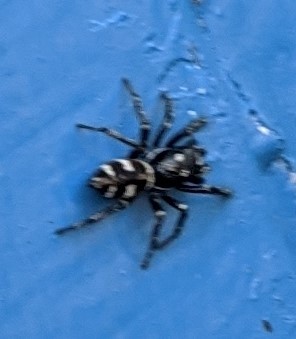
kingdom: Animalia
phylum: Arthropoda
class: Arachnida
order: Araneae
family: Salticidae
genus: Salticus
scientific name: Salticus scenicus
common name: Zebra jumper
